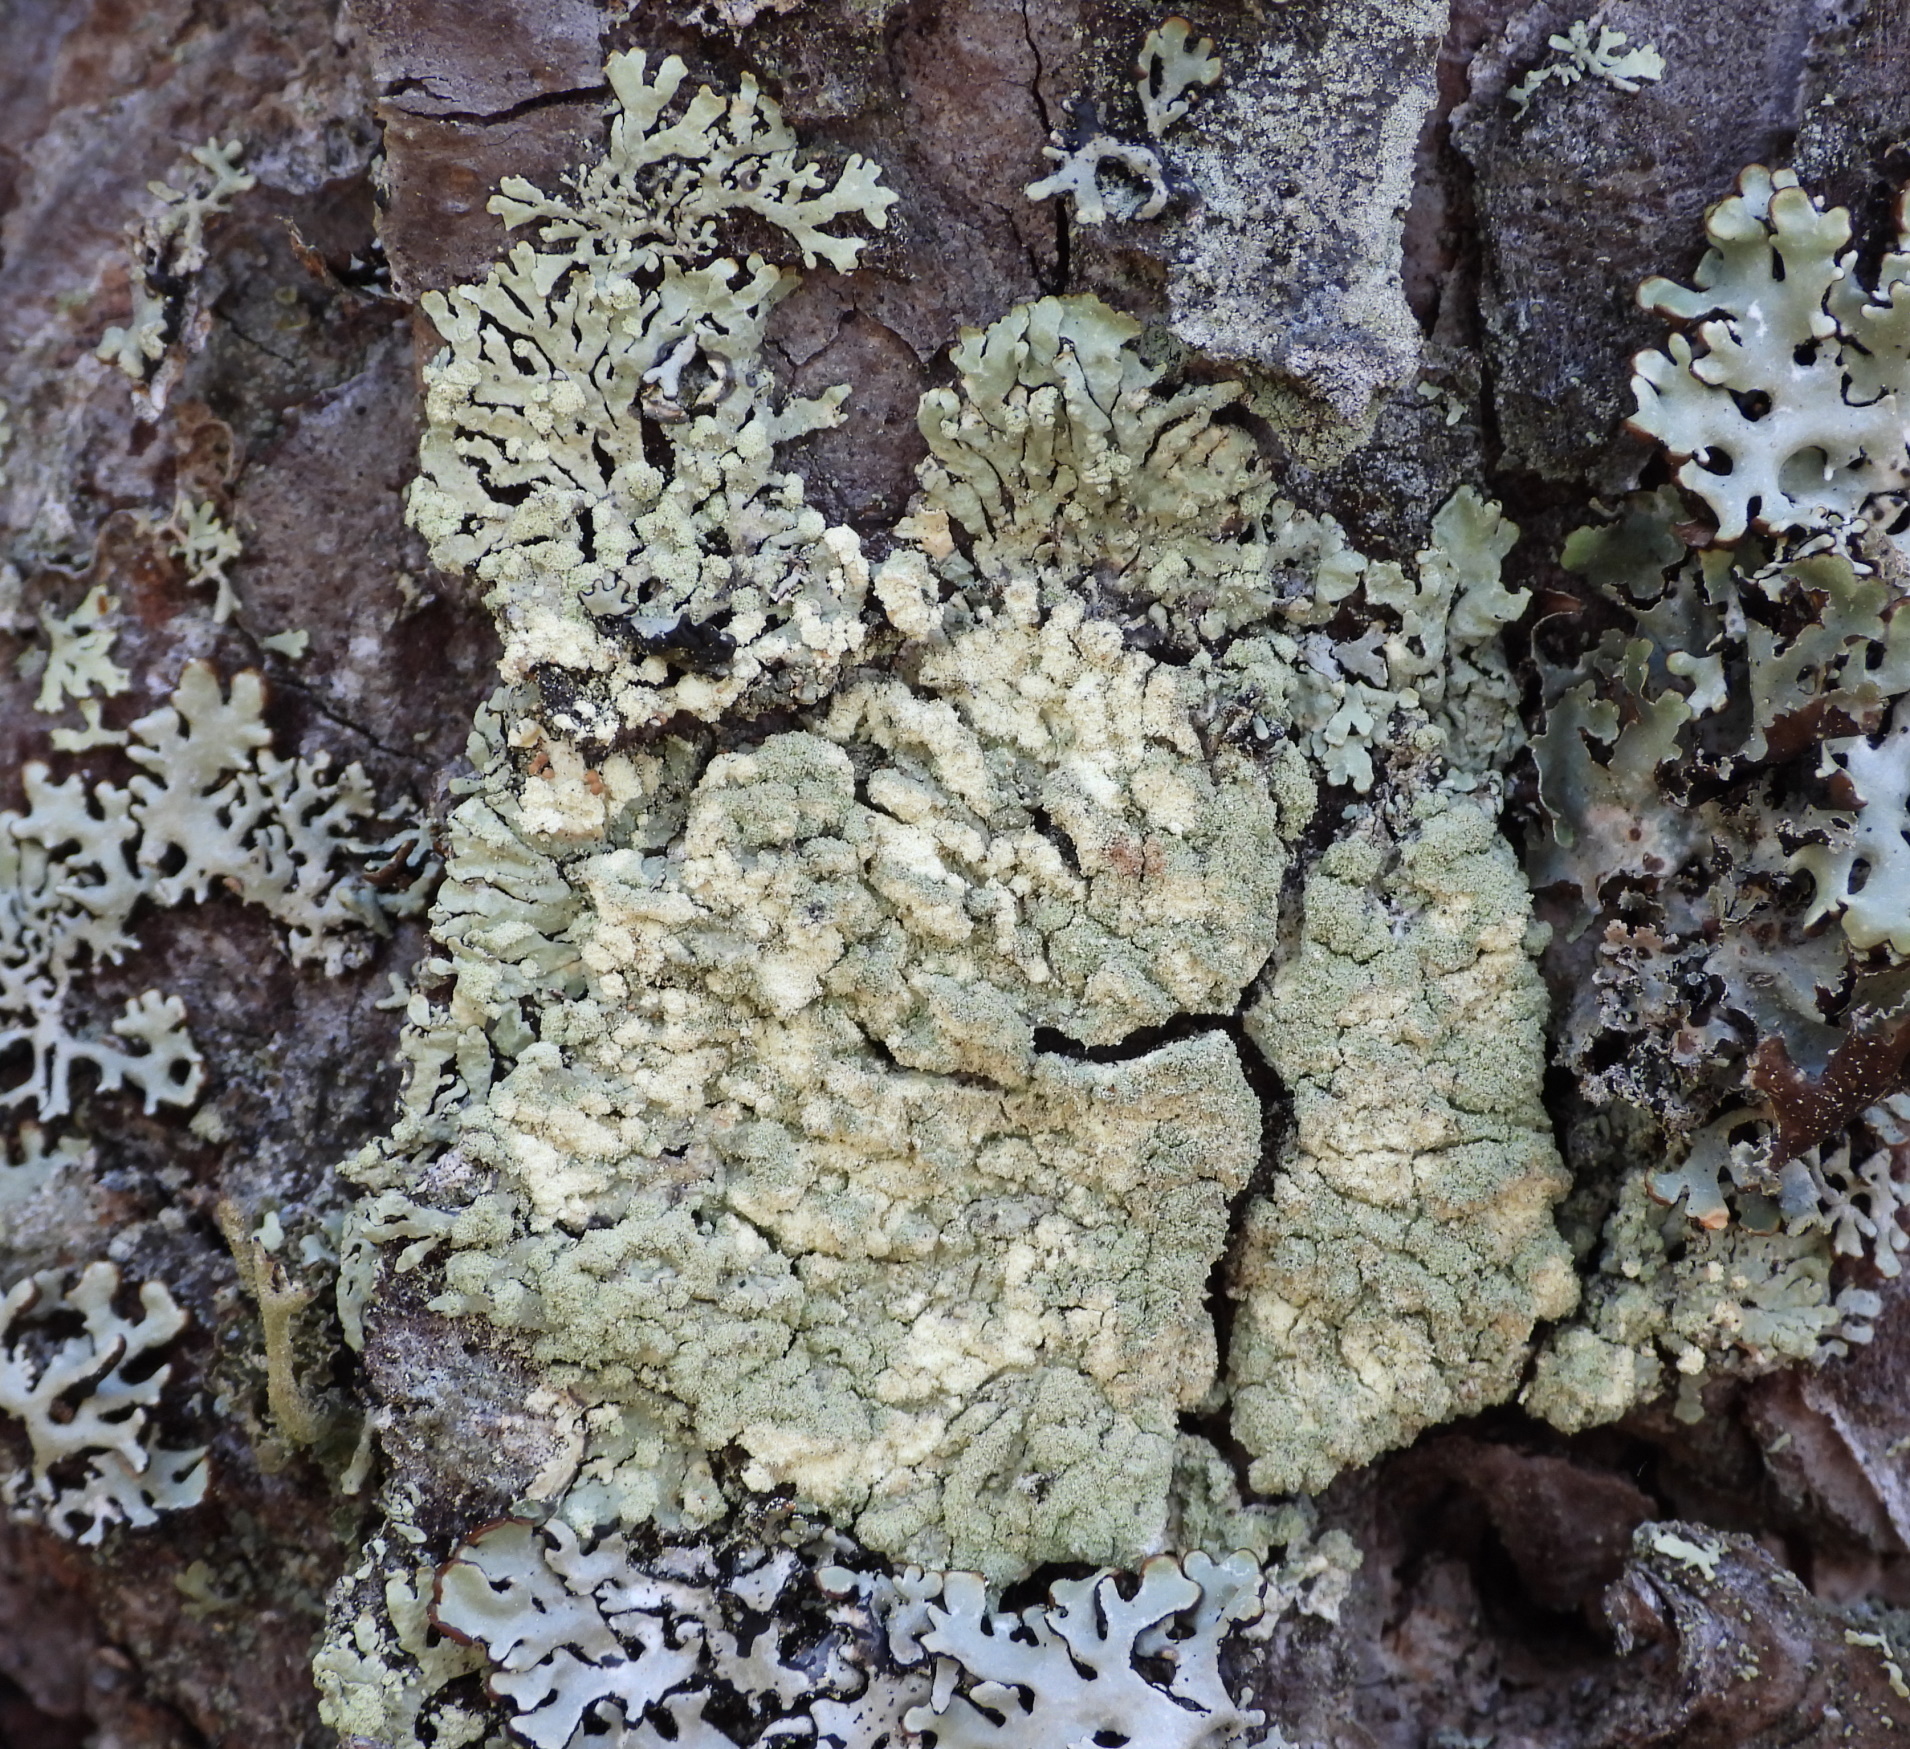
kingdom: Fungi
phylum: Ascomycota
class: Lecanoromycetes
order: Lecanorales
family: Parmeliaceae
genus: Parmeliopsis
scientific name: Parmeliopsis ambigua
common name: Green starburst lichen
